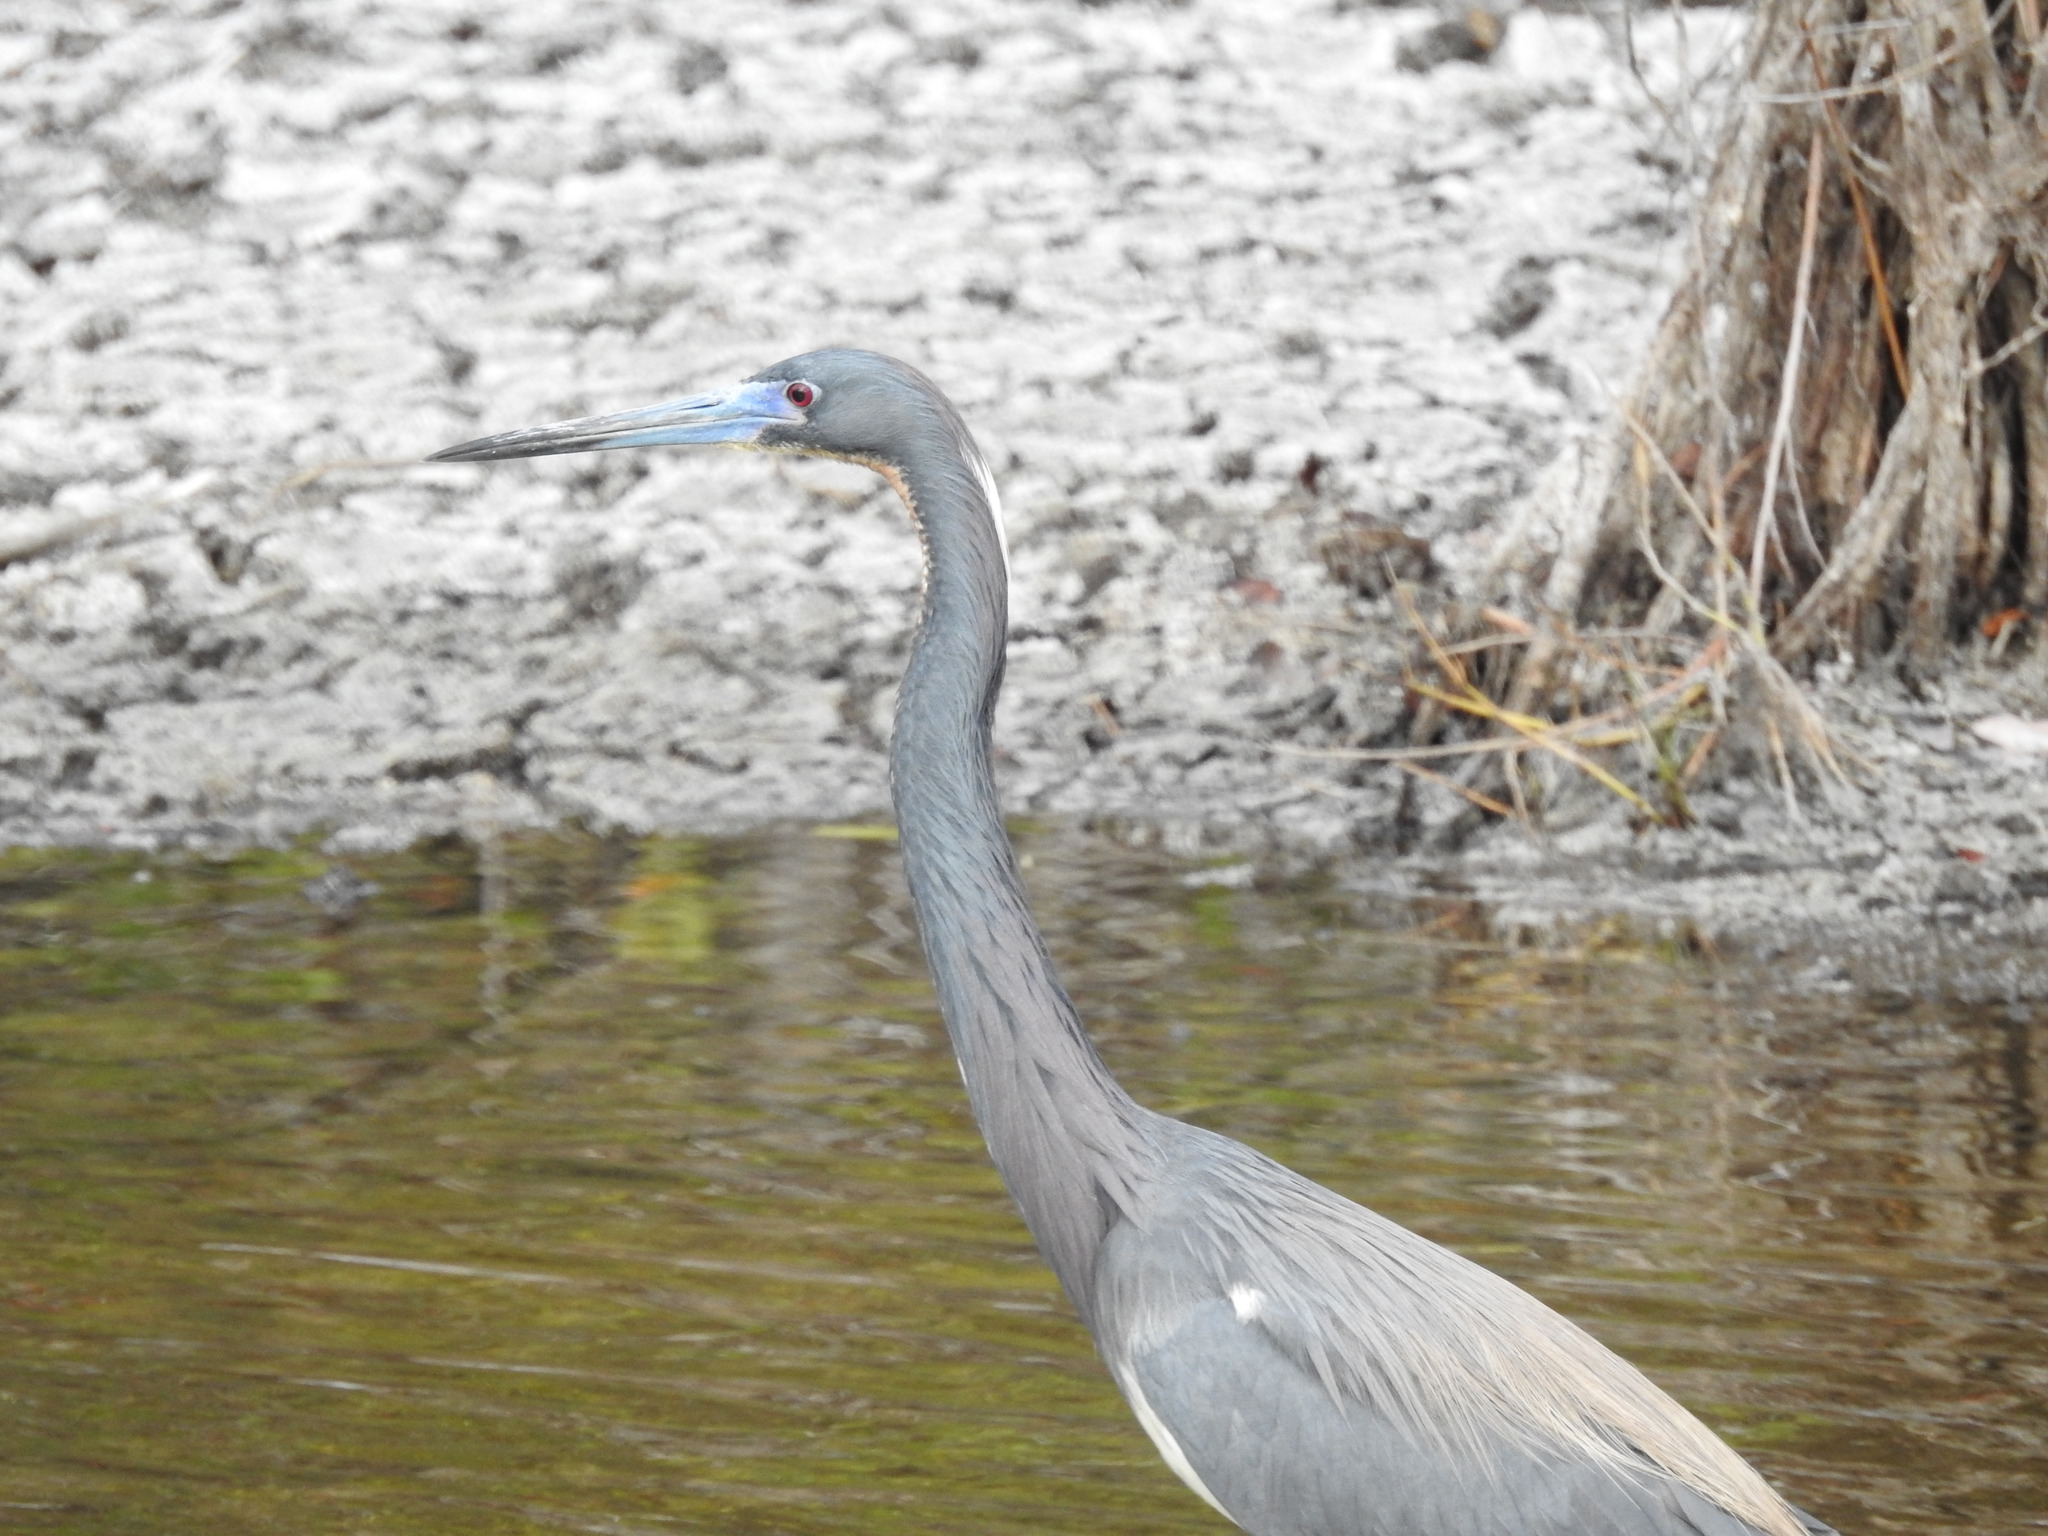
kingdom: Animalia
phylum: Chordata
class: Aves
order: Pelecaniformes
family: Ardeidae
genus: Egretta
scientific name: Egretta tricolor
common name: Tricolored heron
